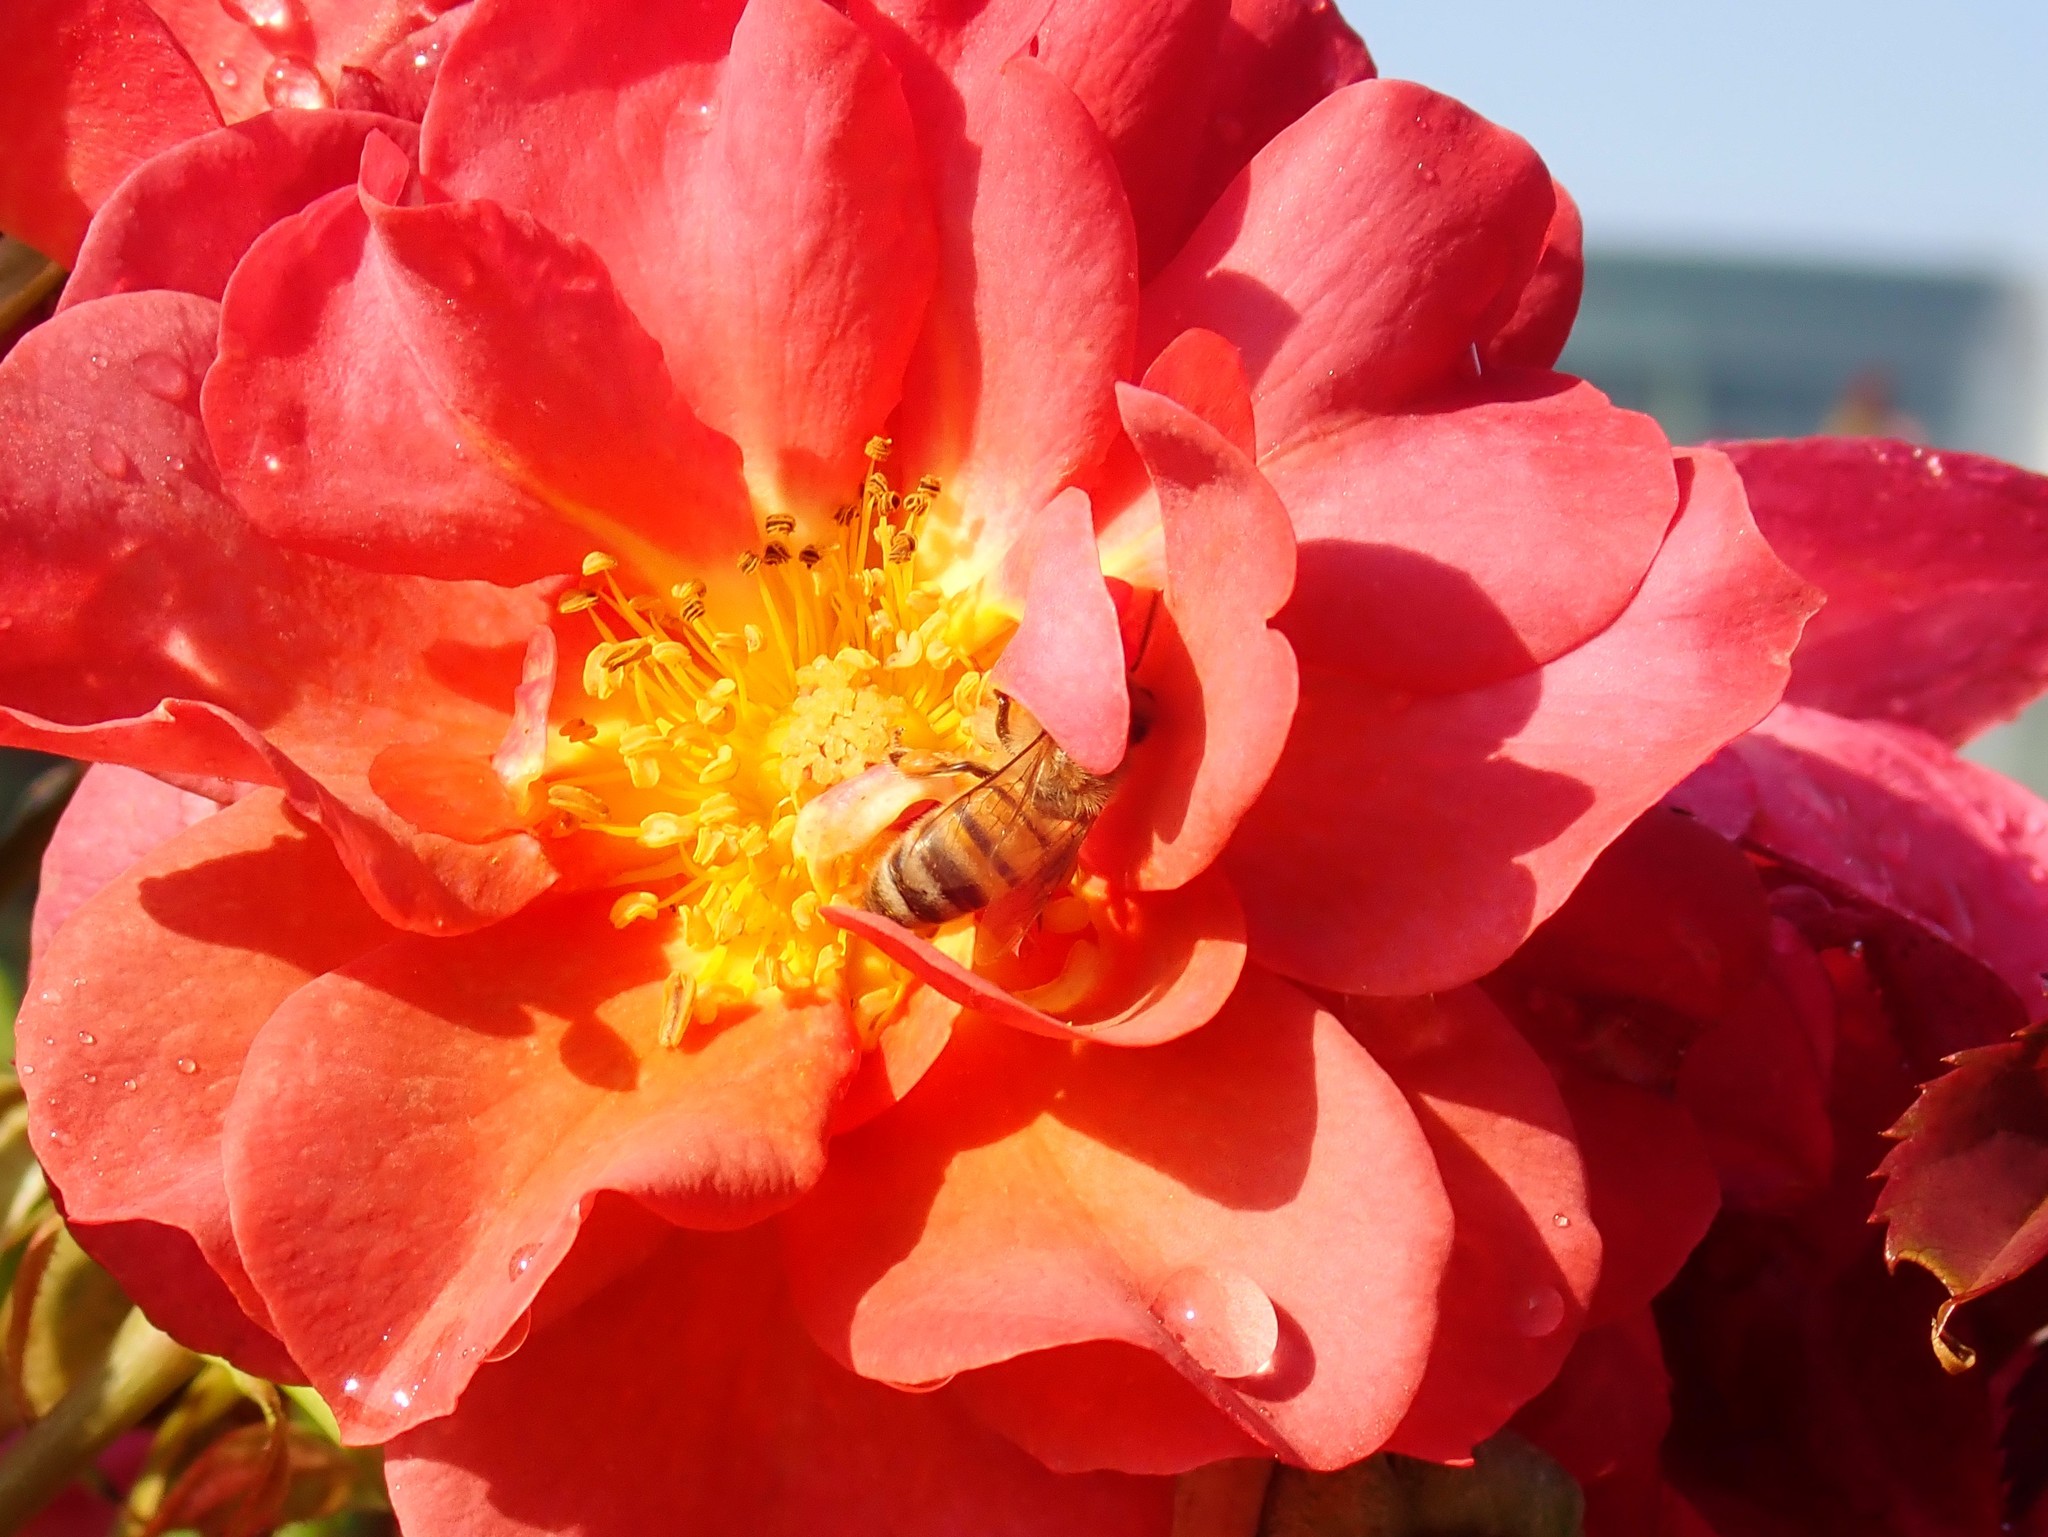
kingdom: Animalia
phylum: Arthropoda
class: Insecta
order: Hymenoptera
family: Apidae
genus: Apis
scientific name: Apis mellifera
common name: Honey bee
